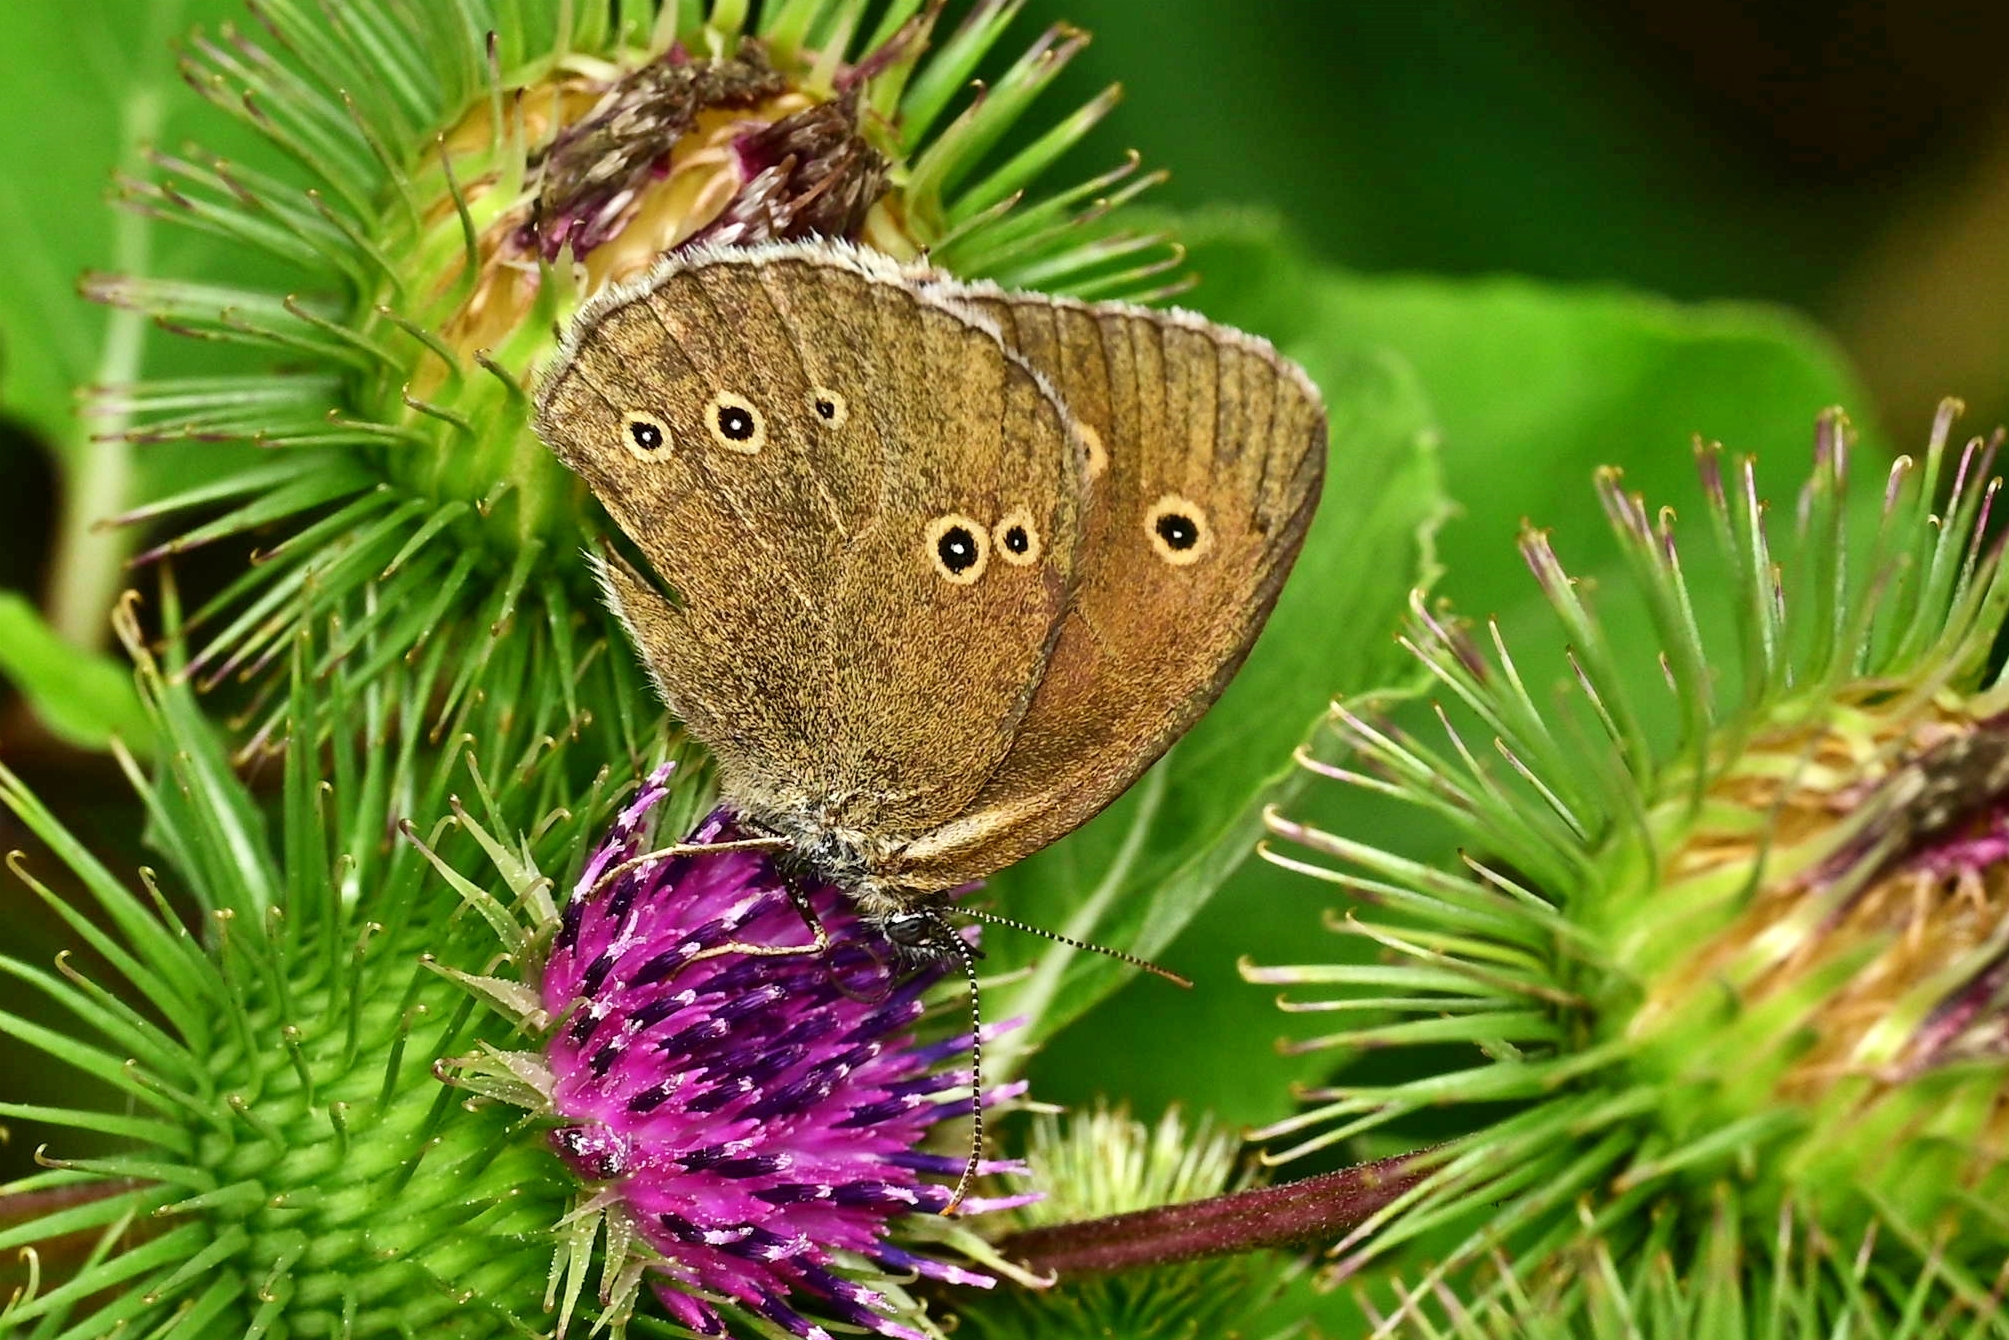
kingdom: Animalia
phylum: Arthropoda
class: Insecta
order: Lepidoptera
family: Nymphalidae
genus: Aphantopus
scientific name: Aphantopus hyperantus
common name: Ringlet
